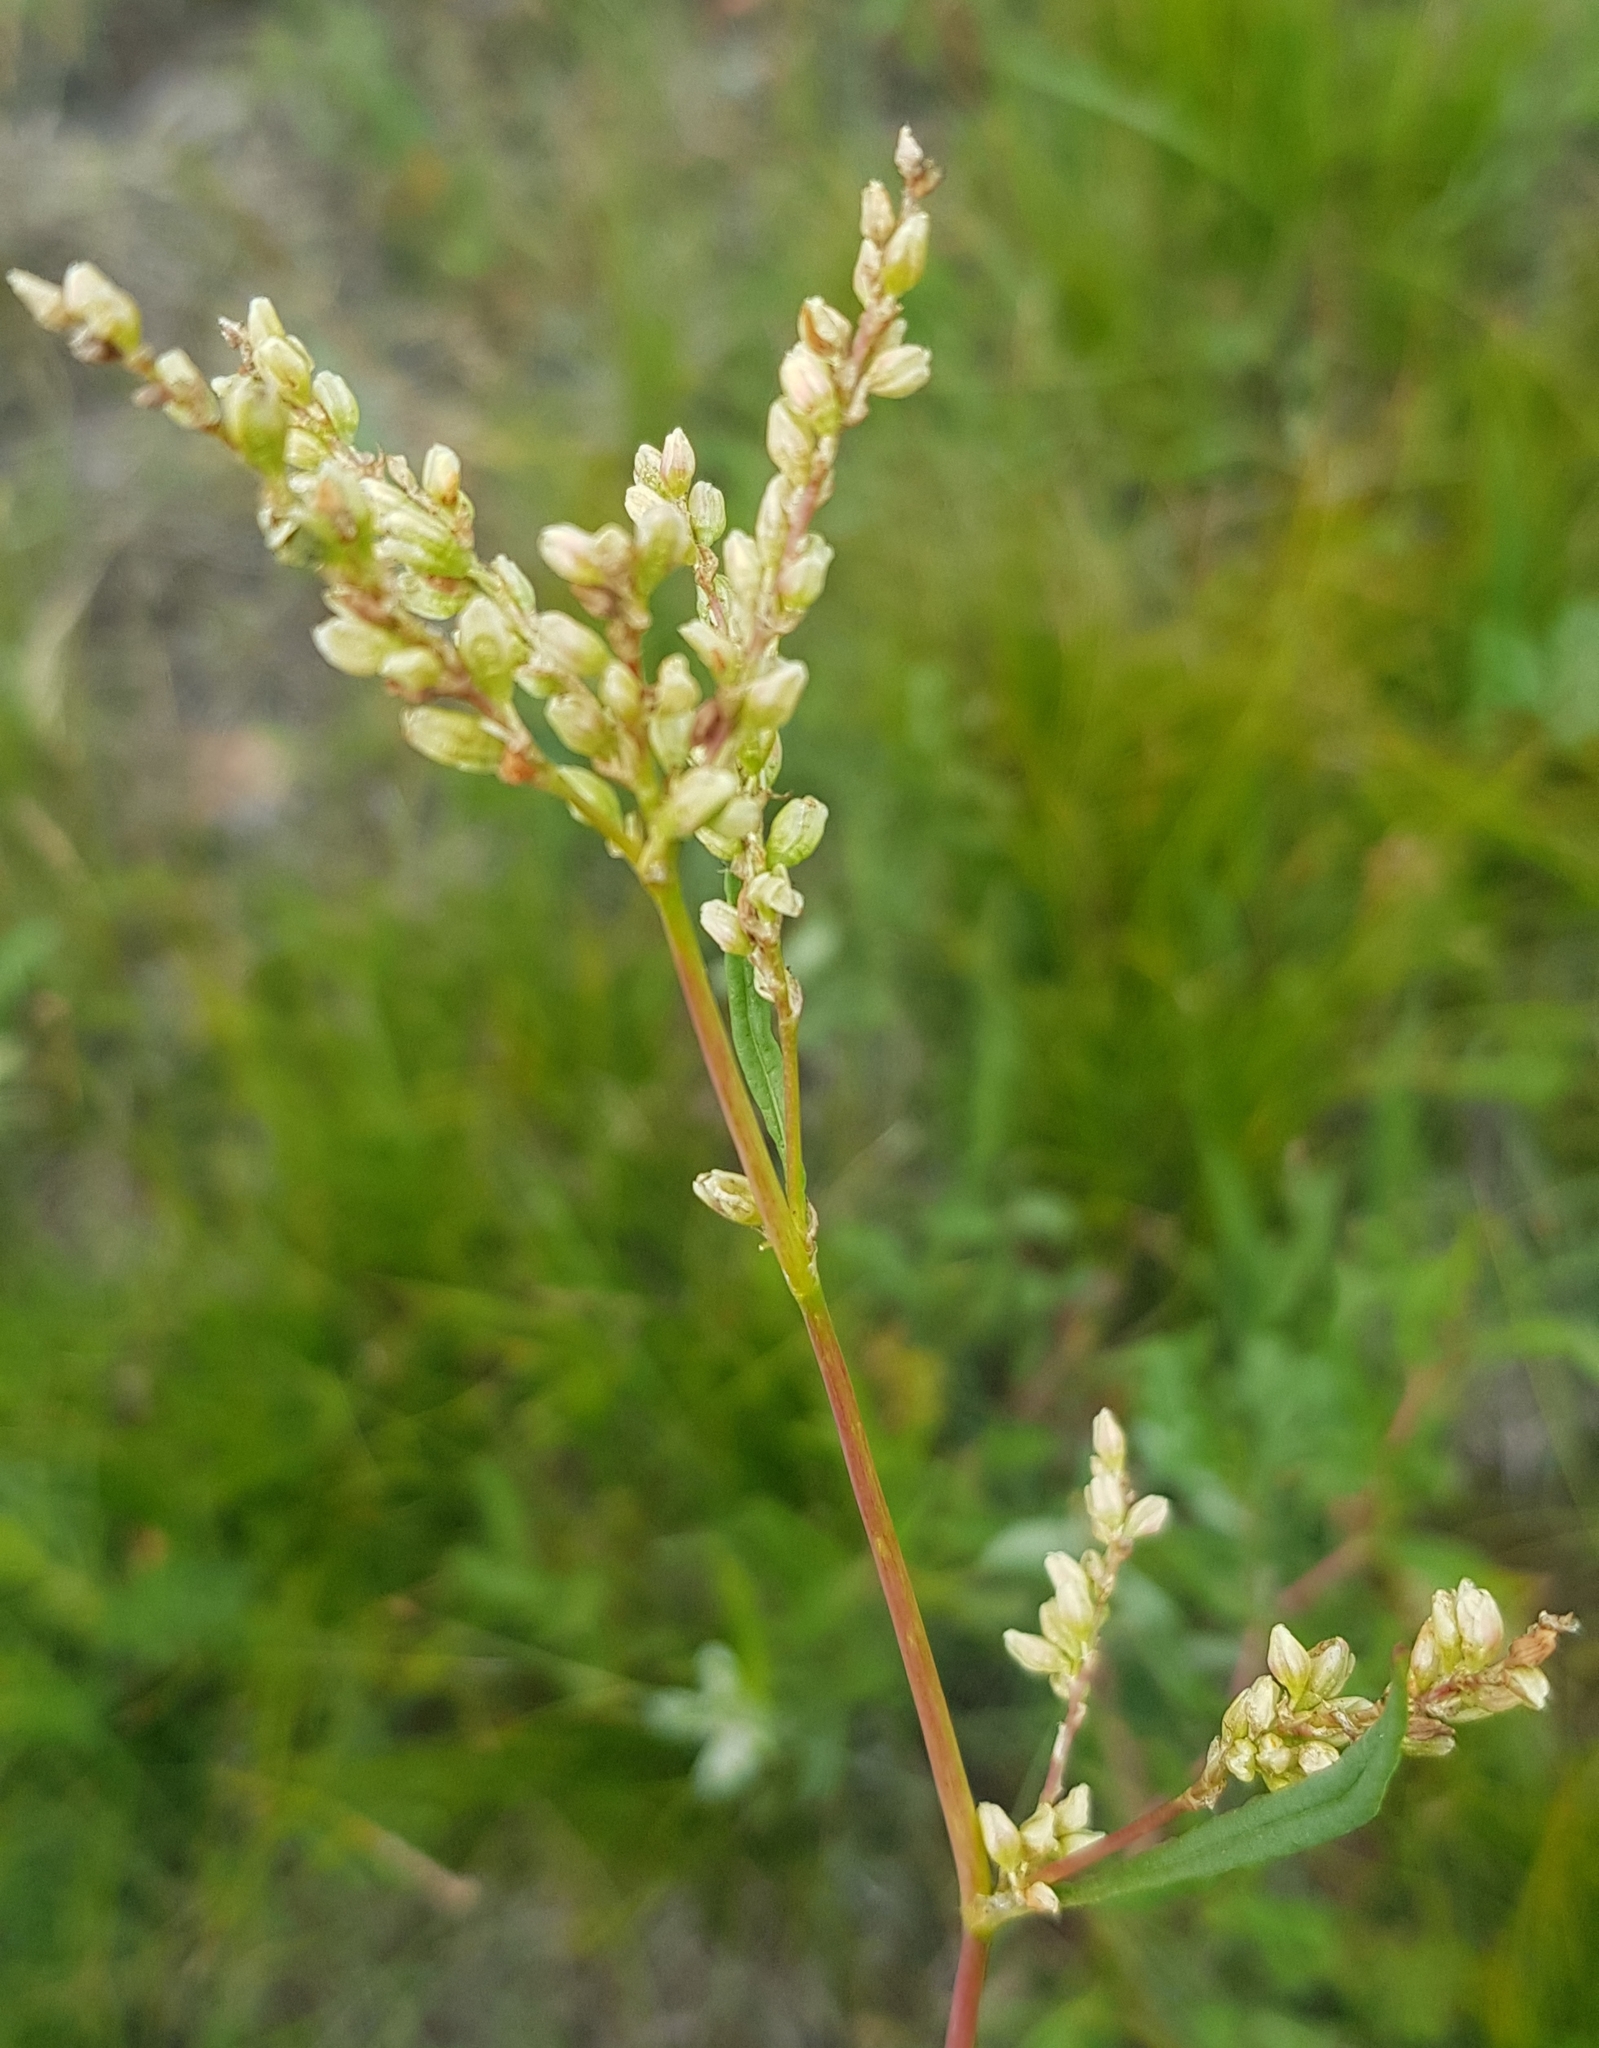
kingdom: Plantae
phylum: Tracheophyta
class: Magnoliopsida
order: Caryophyllales
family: Polygonaceae
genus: Persicaria
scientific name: Persicaria angustifolia
